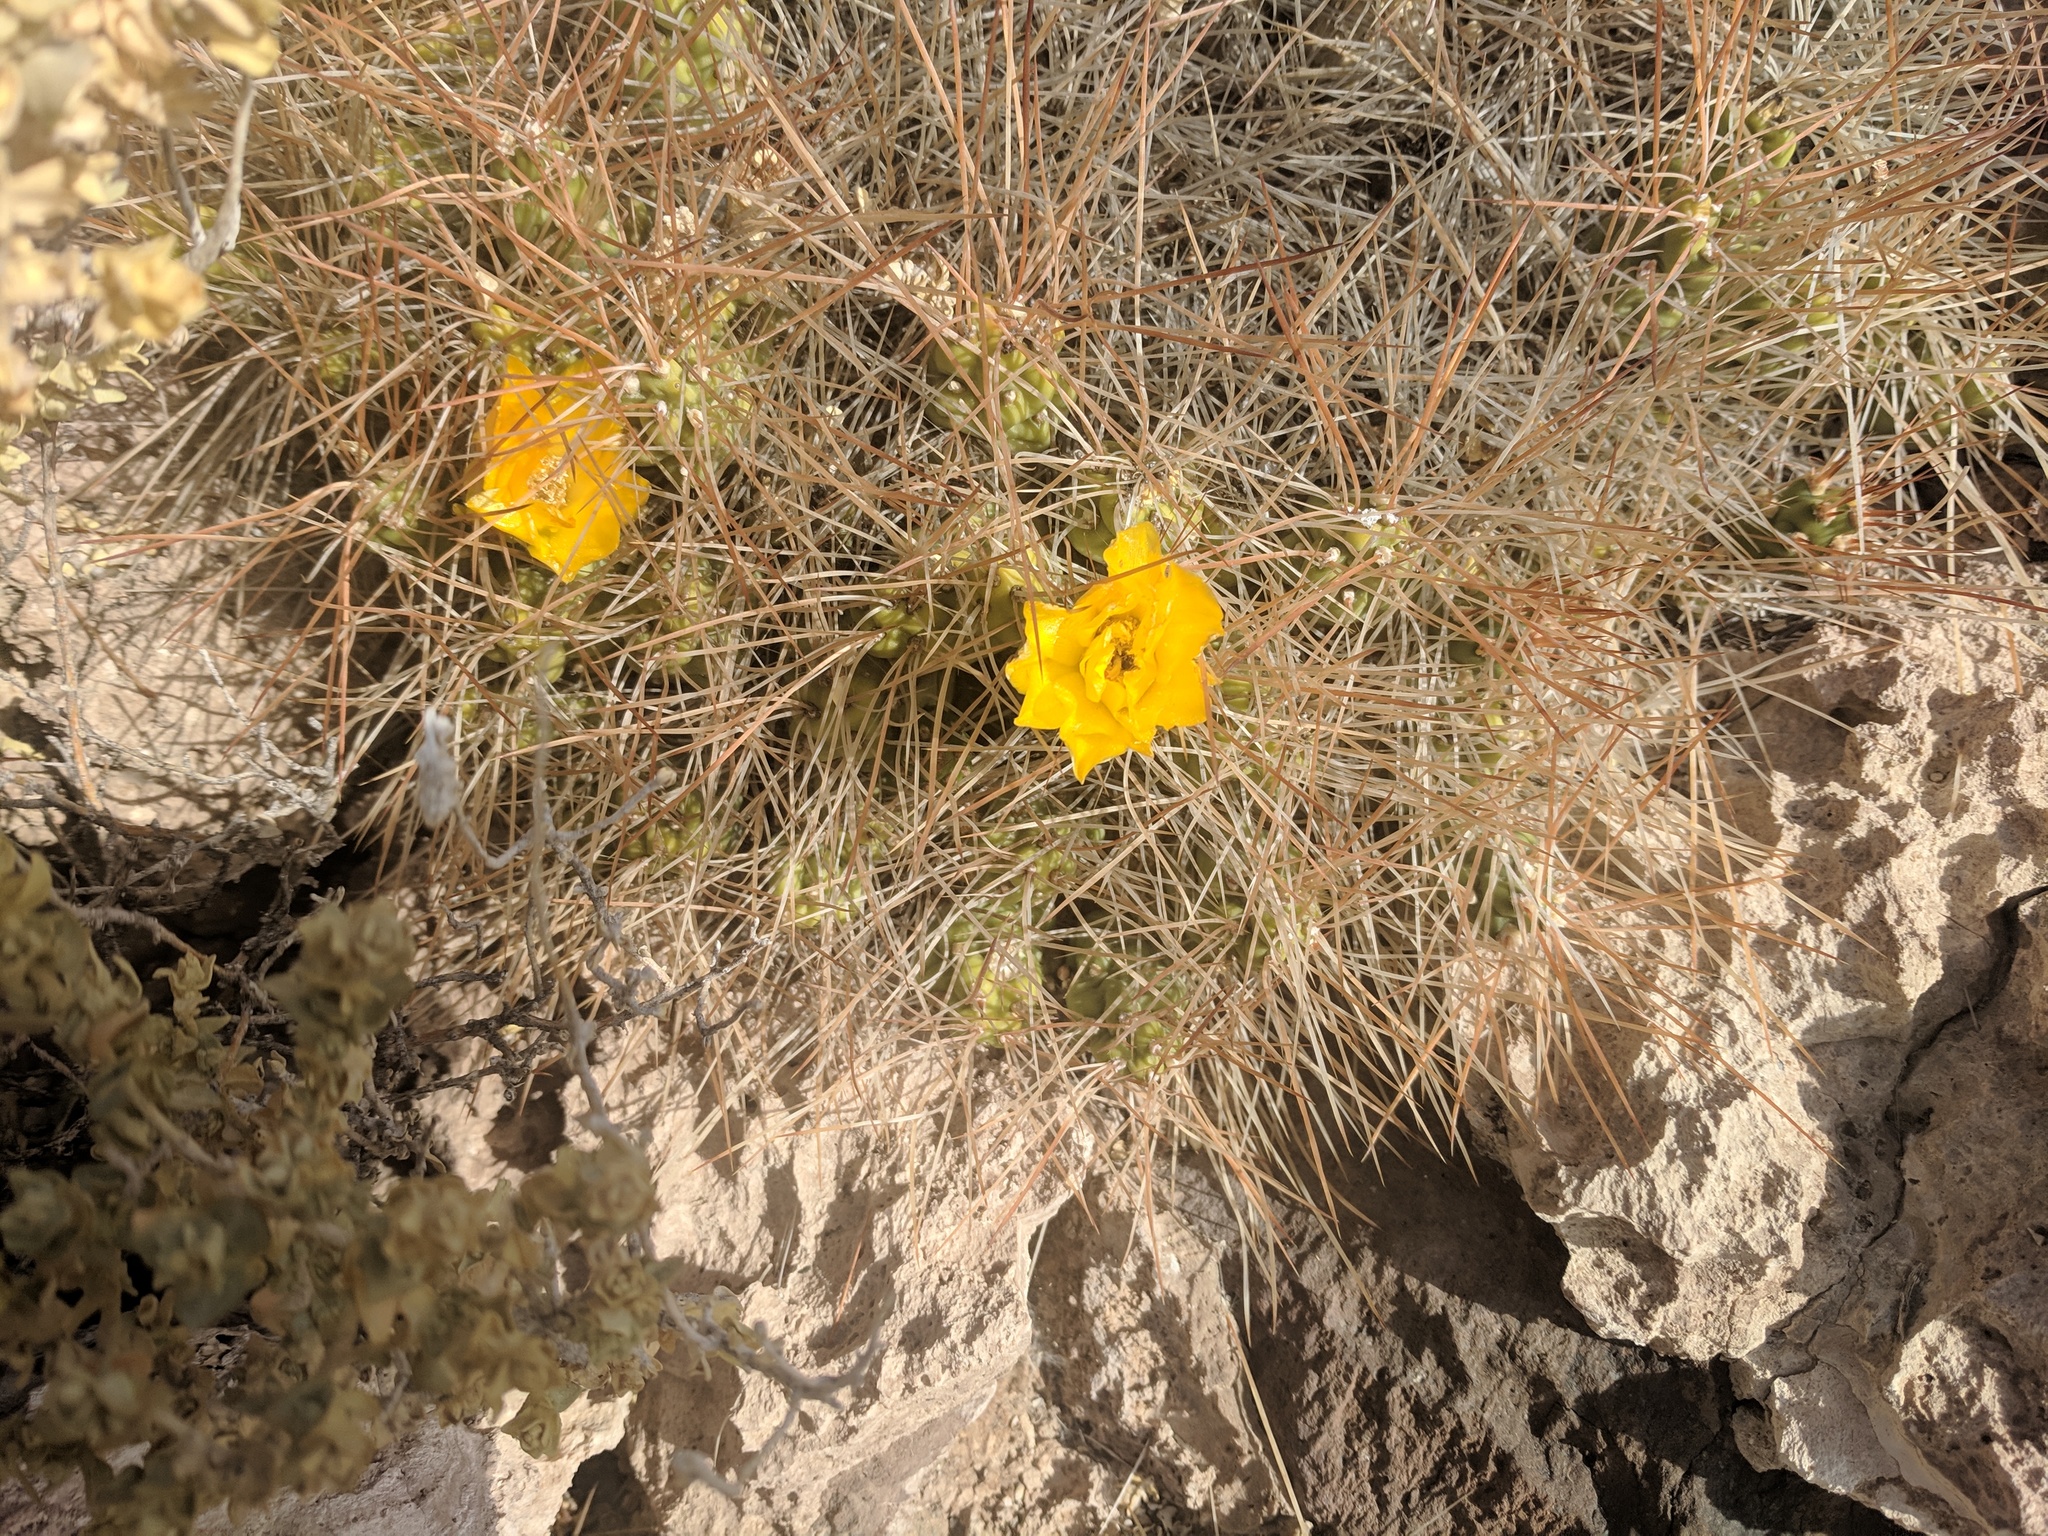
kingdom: Plantae
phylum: Tracheophyta
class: Magnoliopsida
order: Caryophyllales
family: Cactaceae
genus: Cumulopuntia
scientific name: Cumulopuntia boliviana
